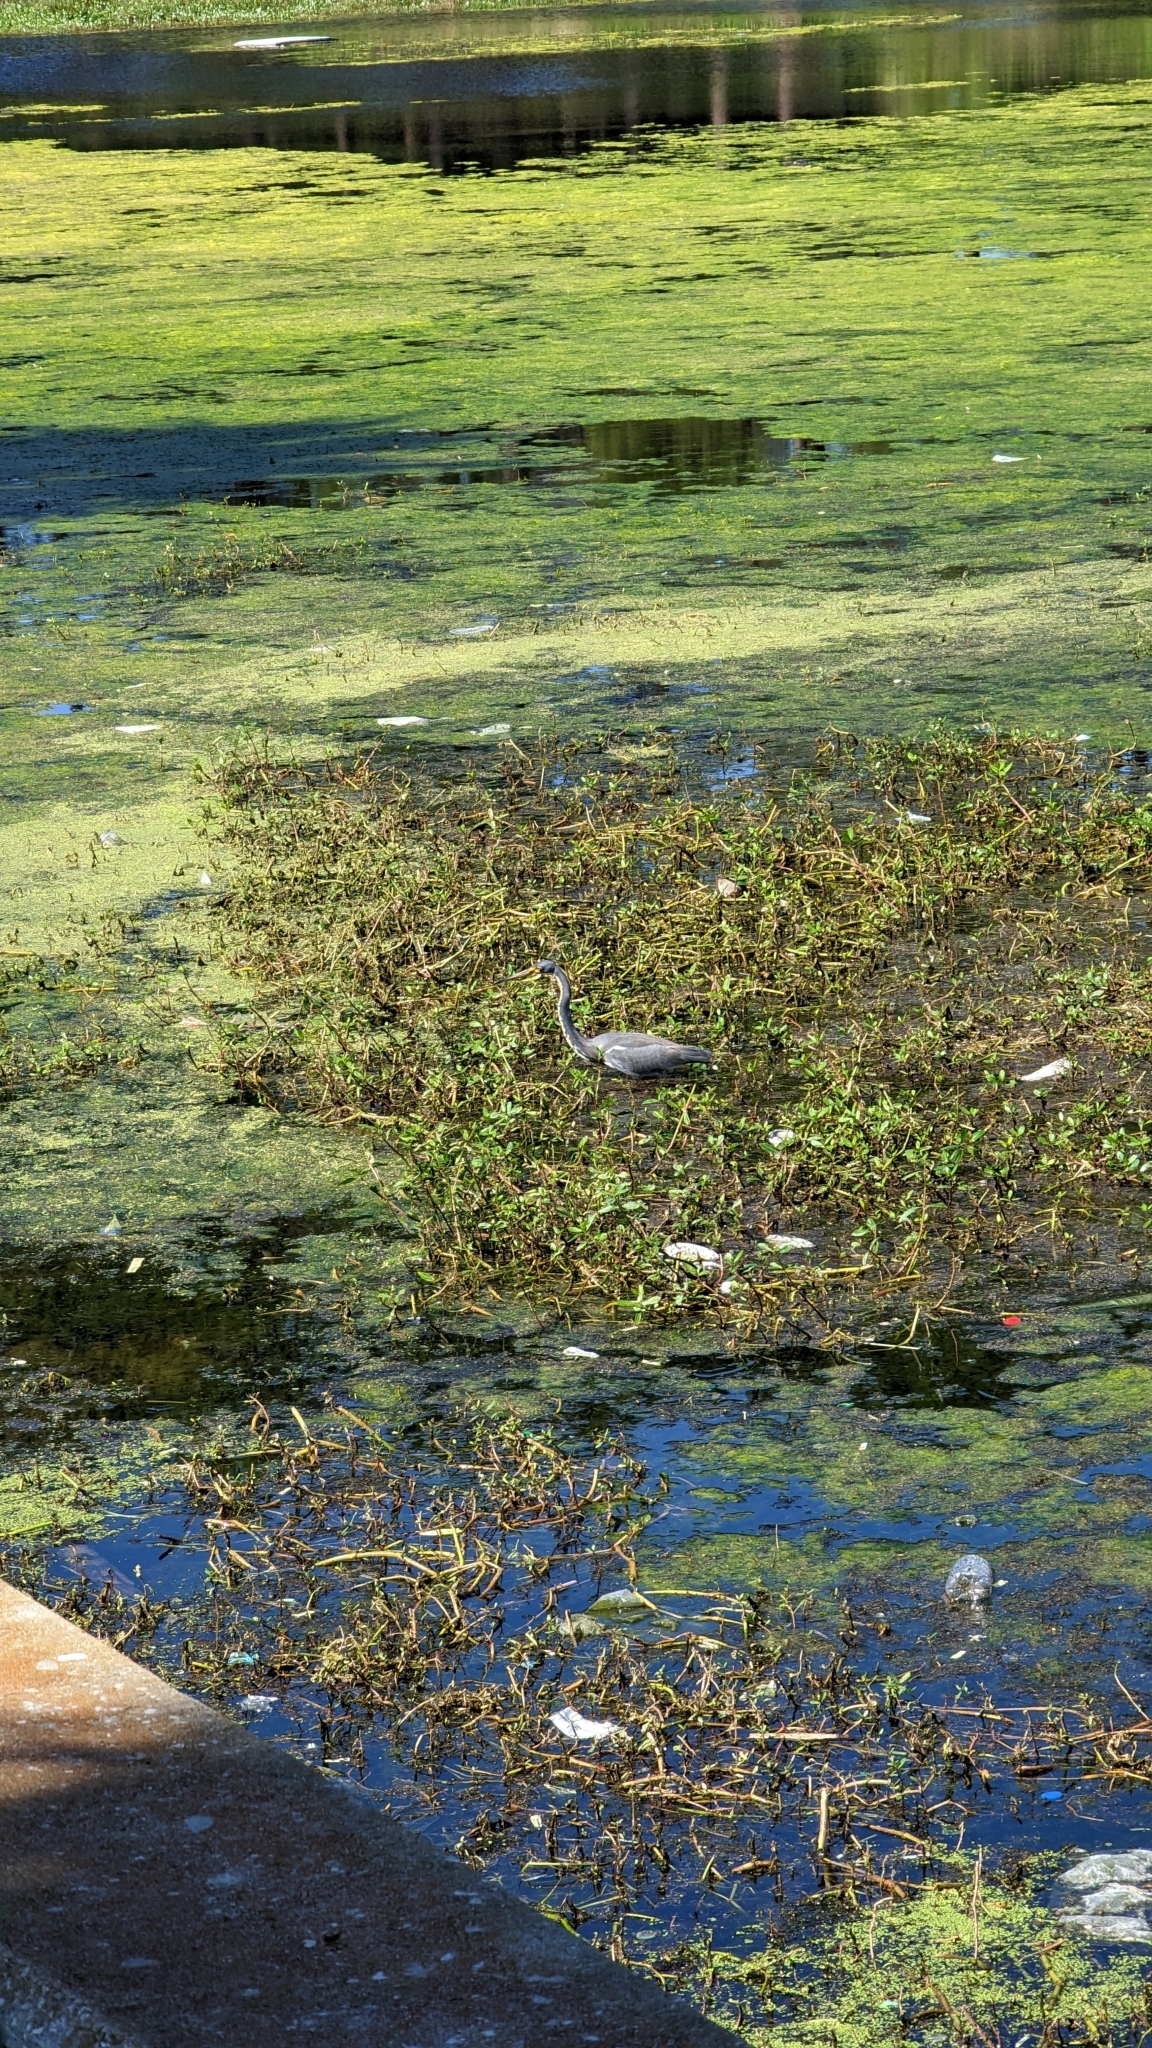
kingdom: Animalia
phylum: Chordata
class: Aves
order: Pelecaniformes
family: Ardeidae
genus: Egretta
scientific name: Egretta tricolor
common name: Tricolored heron
